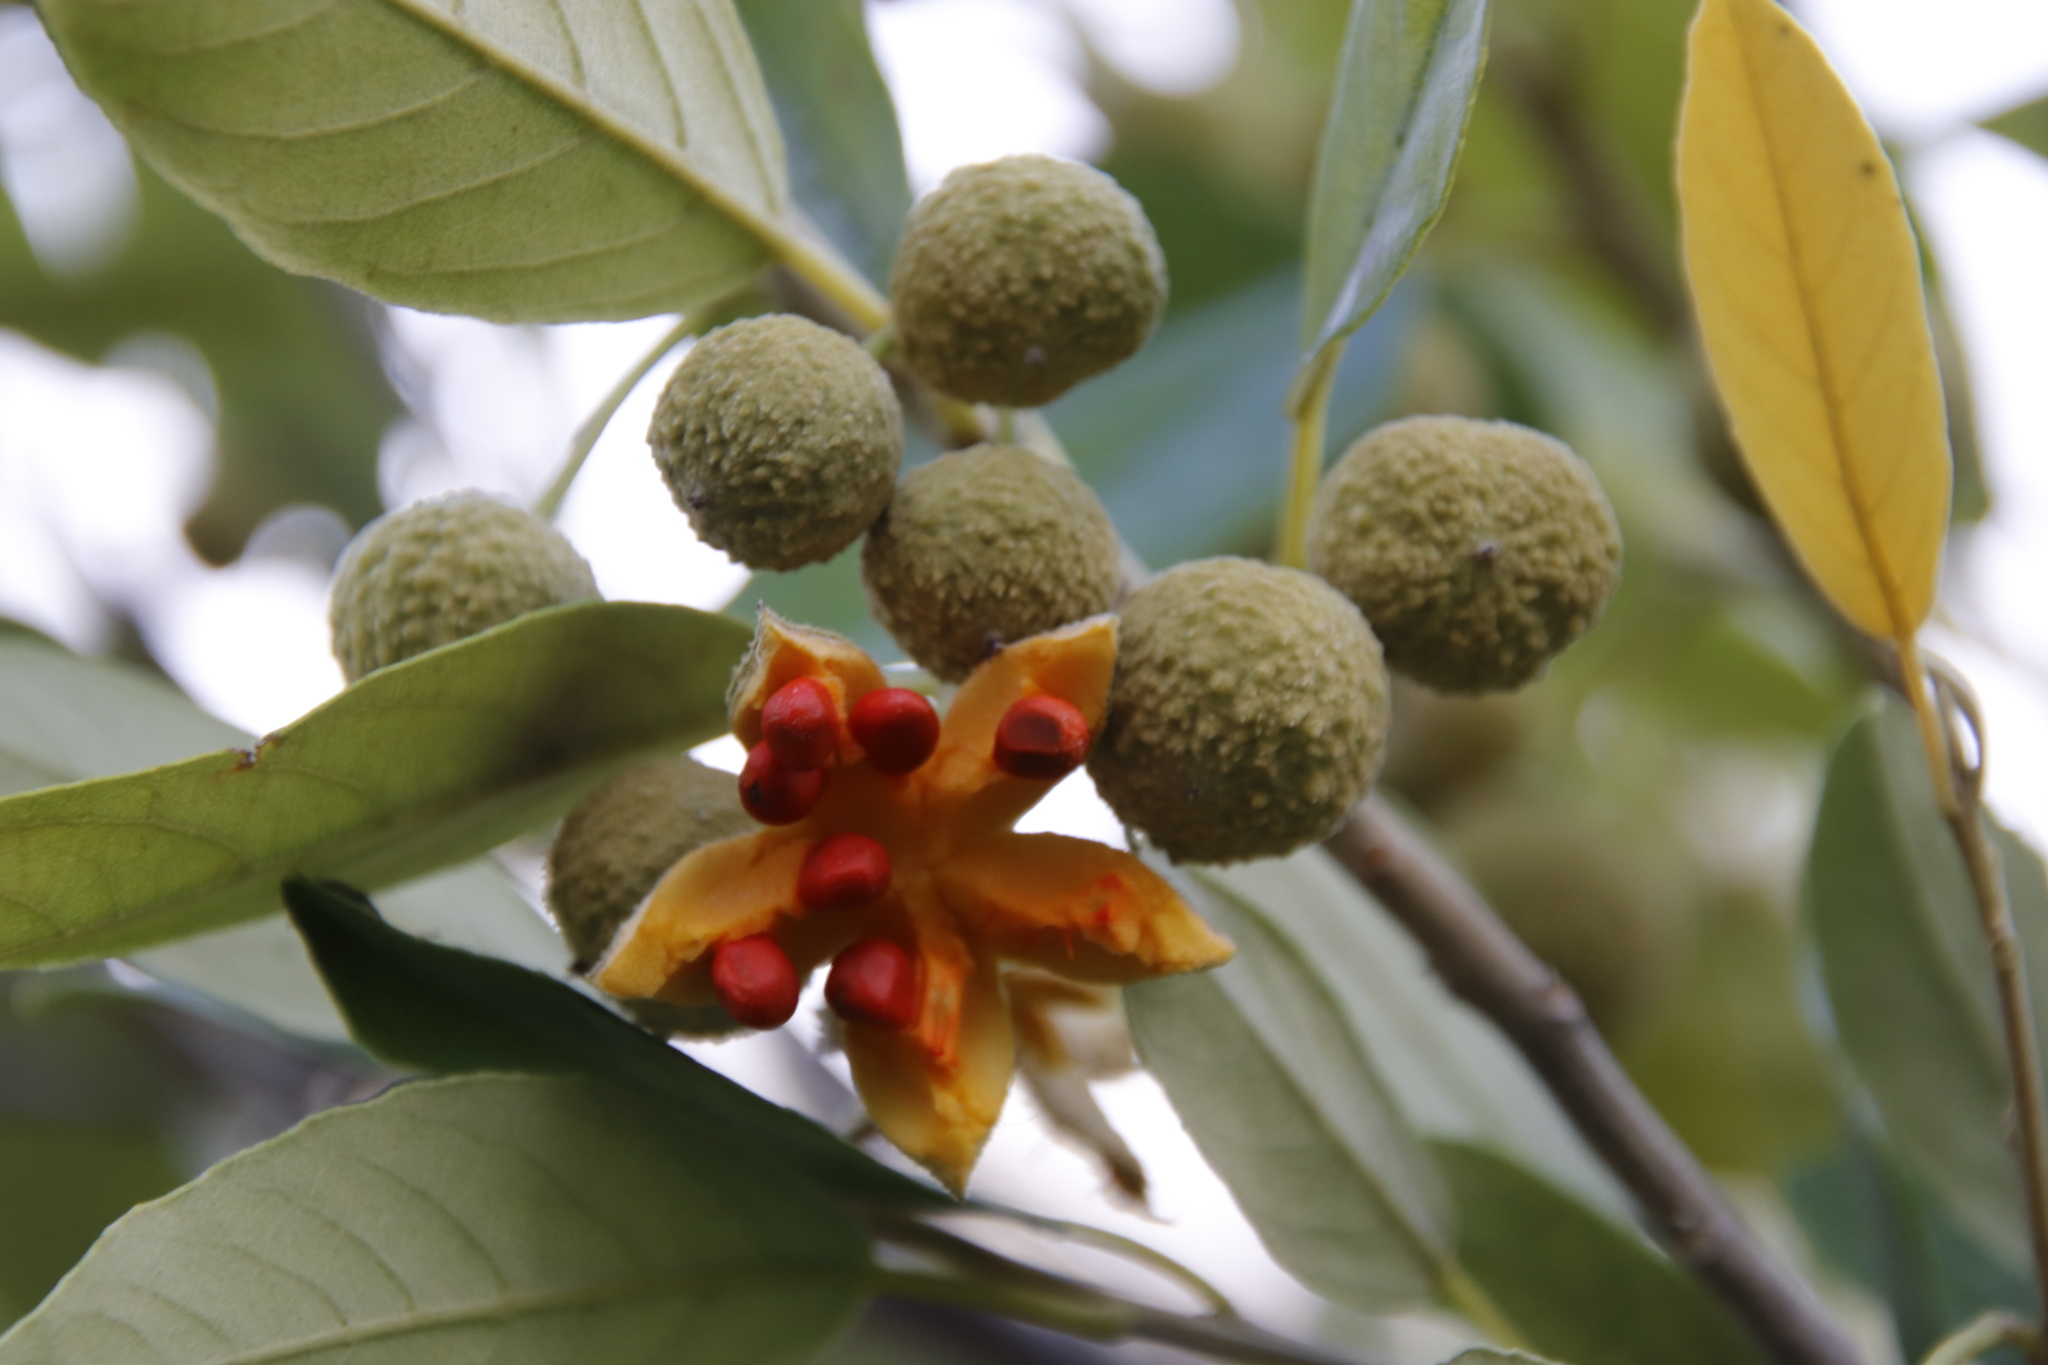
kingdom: Plantae
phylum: Tracheophyta
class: Magnoliopsida
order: Malpighiales
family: Achariaceae
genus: Kiggelaria
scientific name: Kiggelaria africana
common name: Wild peach
